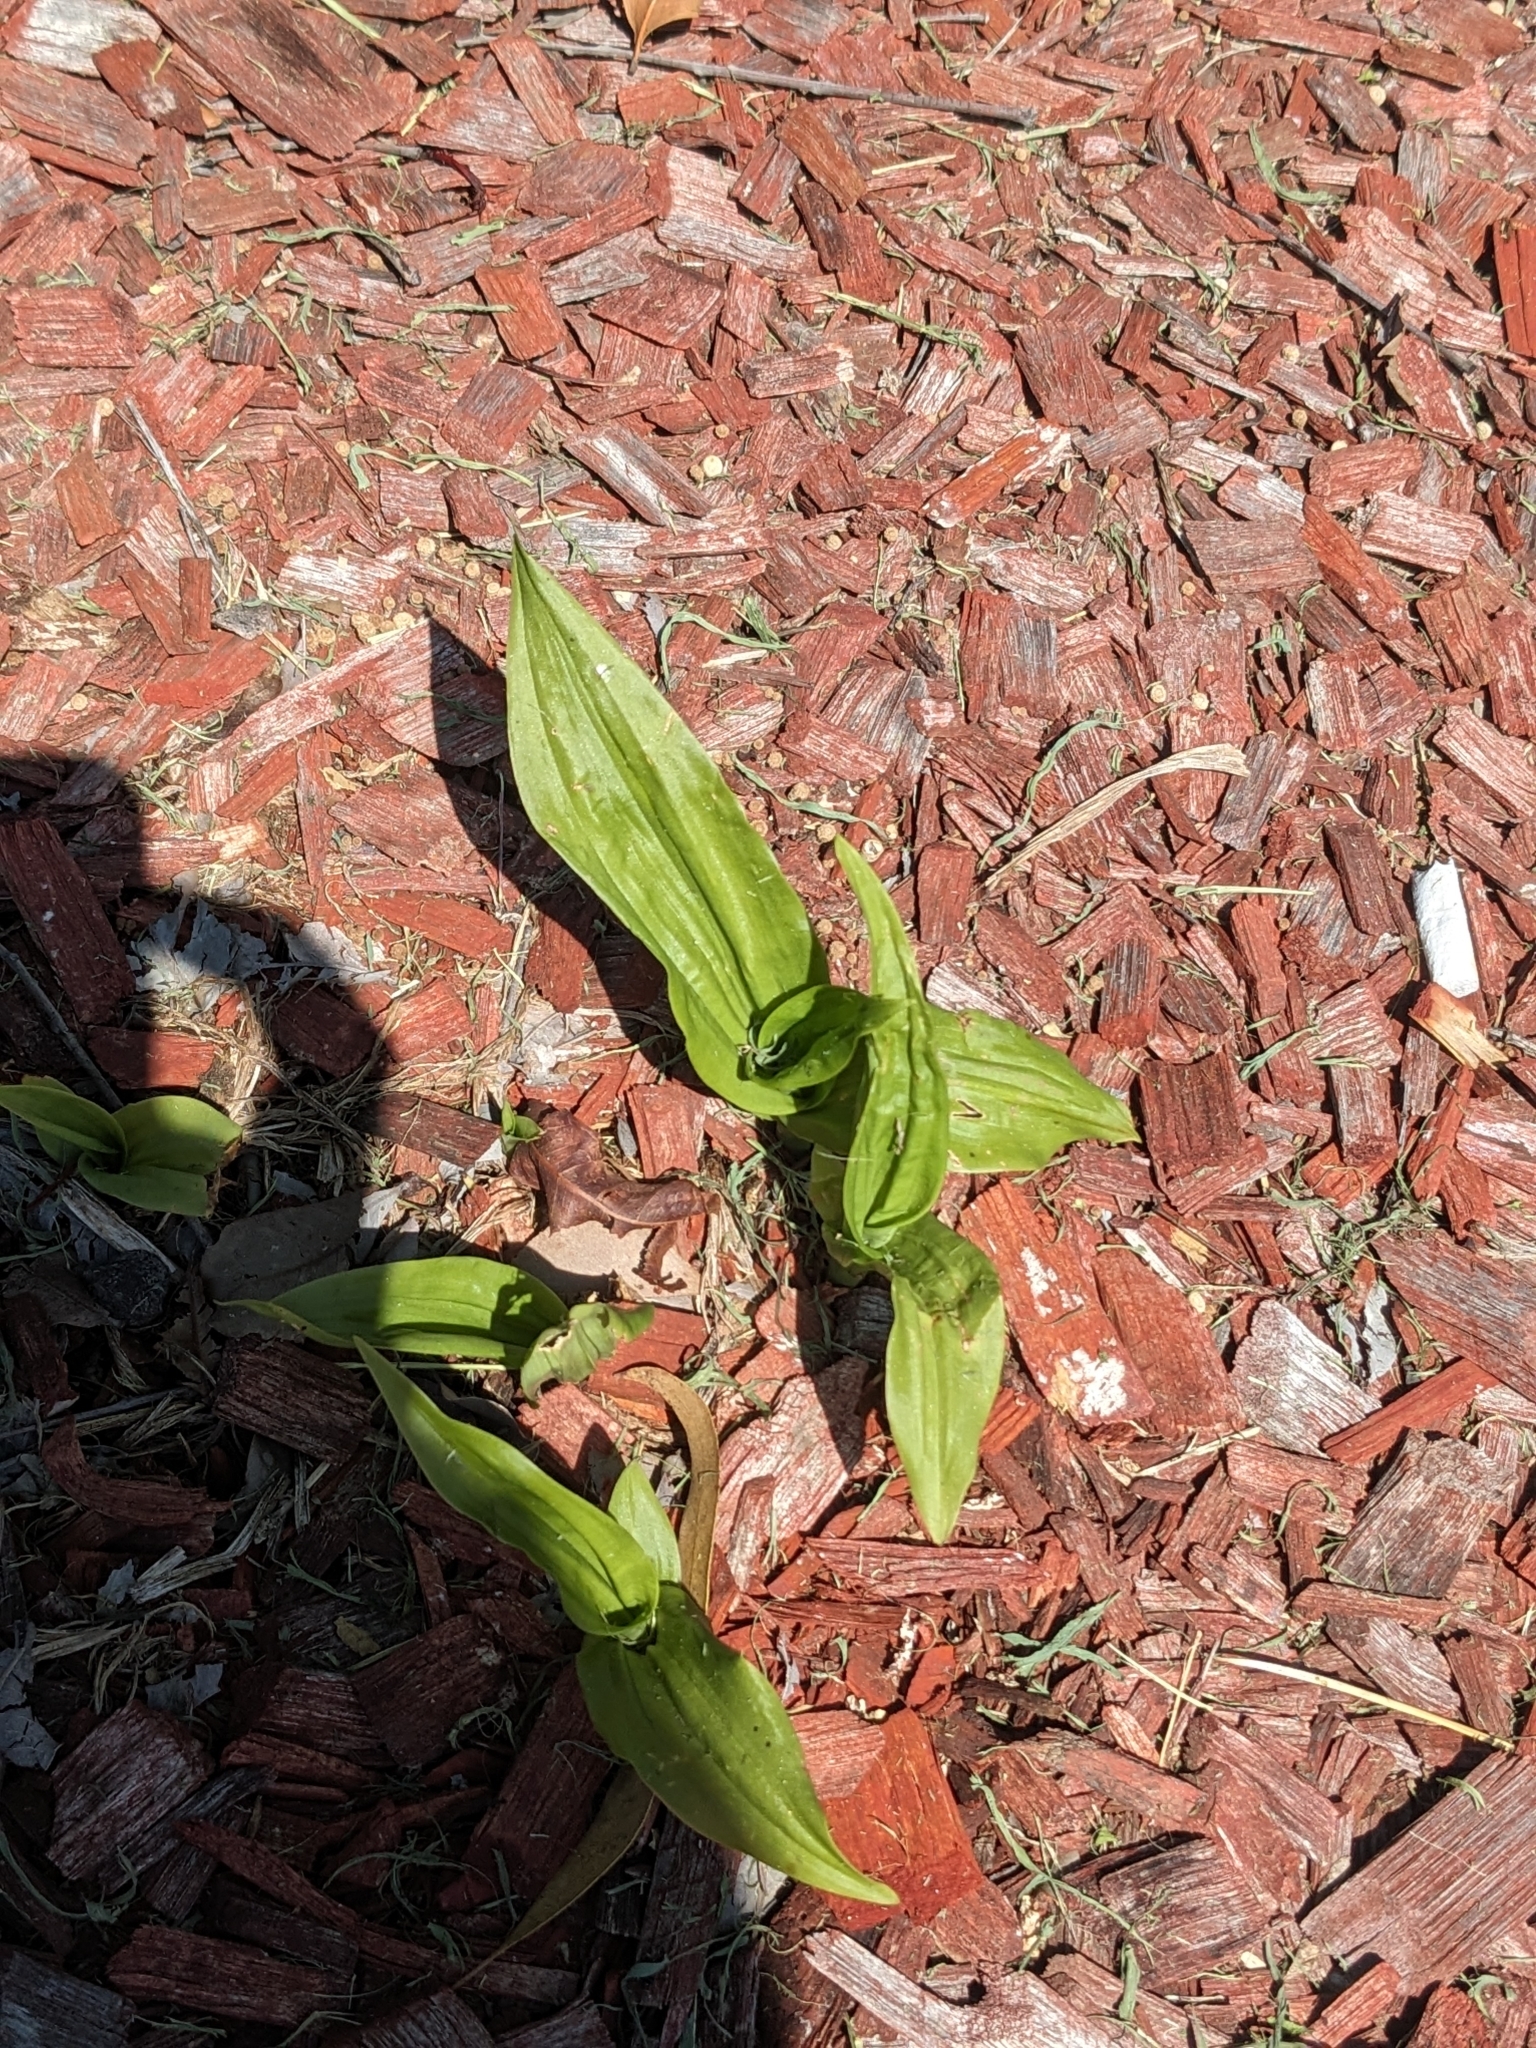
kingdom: Plantae
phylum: Tracheophyta
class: Liliopsida
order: Asparagales
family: Orchidaceae
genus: Eulophia
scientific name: Eulophia cernua
